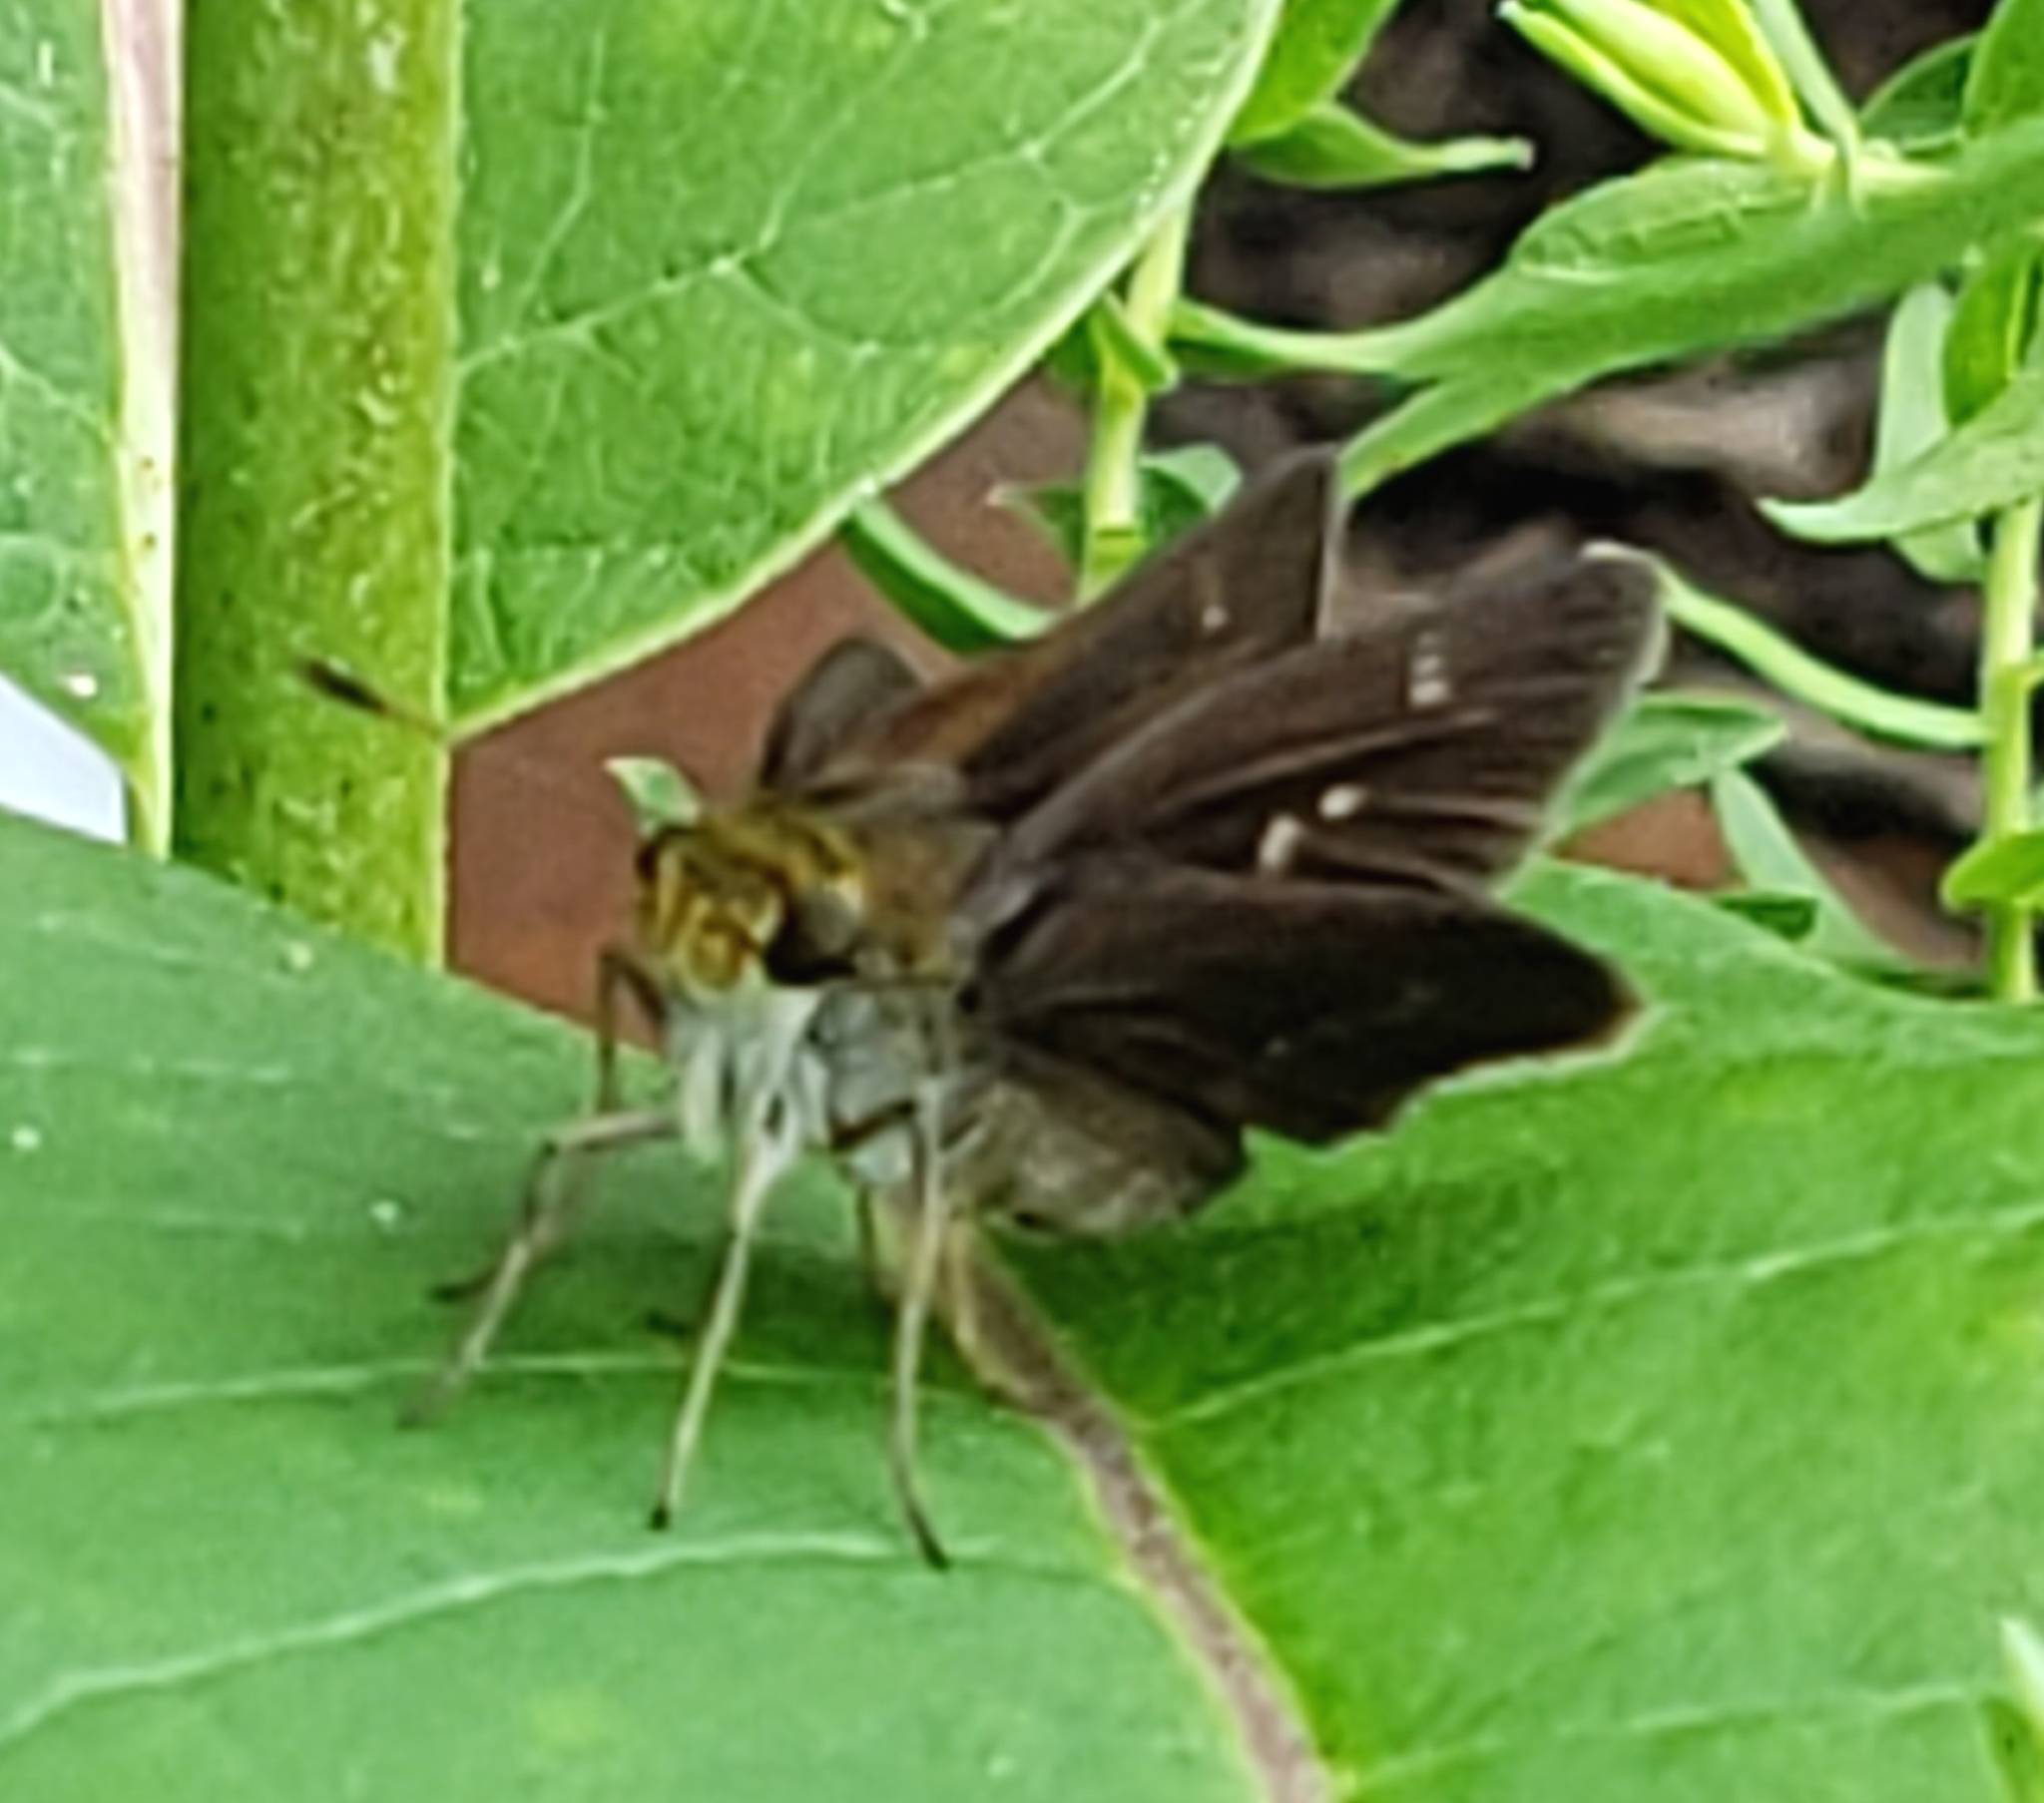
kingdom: Animalia
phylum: Arthropoda
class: Insecta
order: Lepidoptera
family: Hesperiidae
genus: Euphyes
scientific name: Euphyes vestris
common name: Dun skipper
